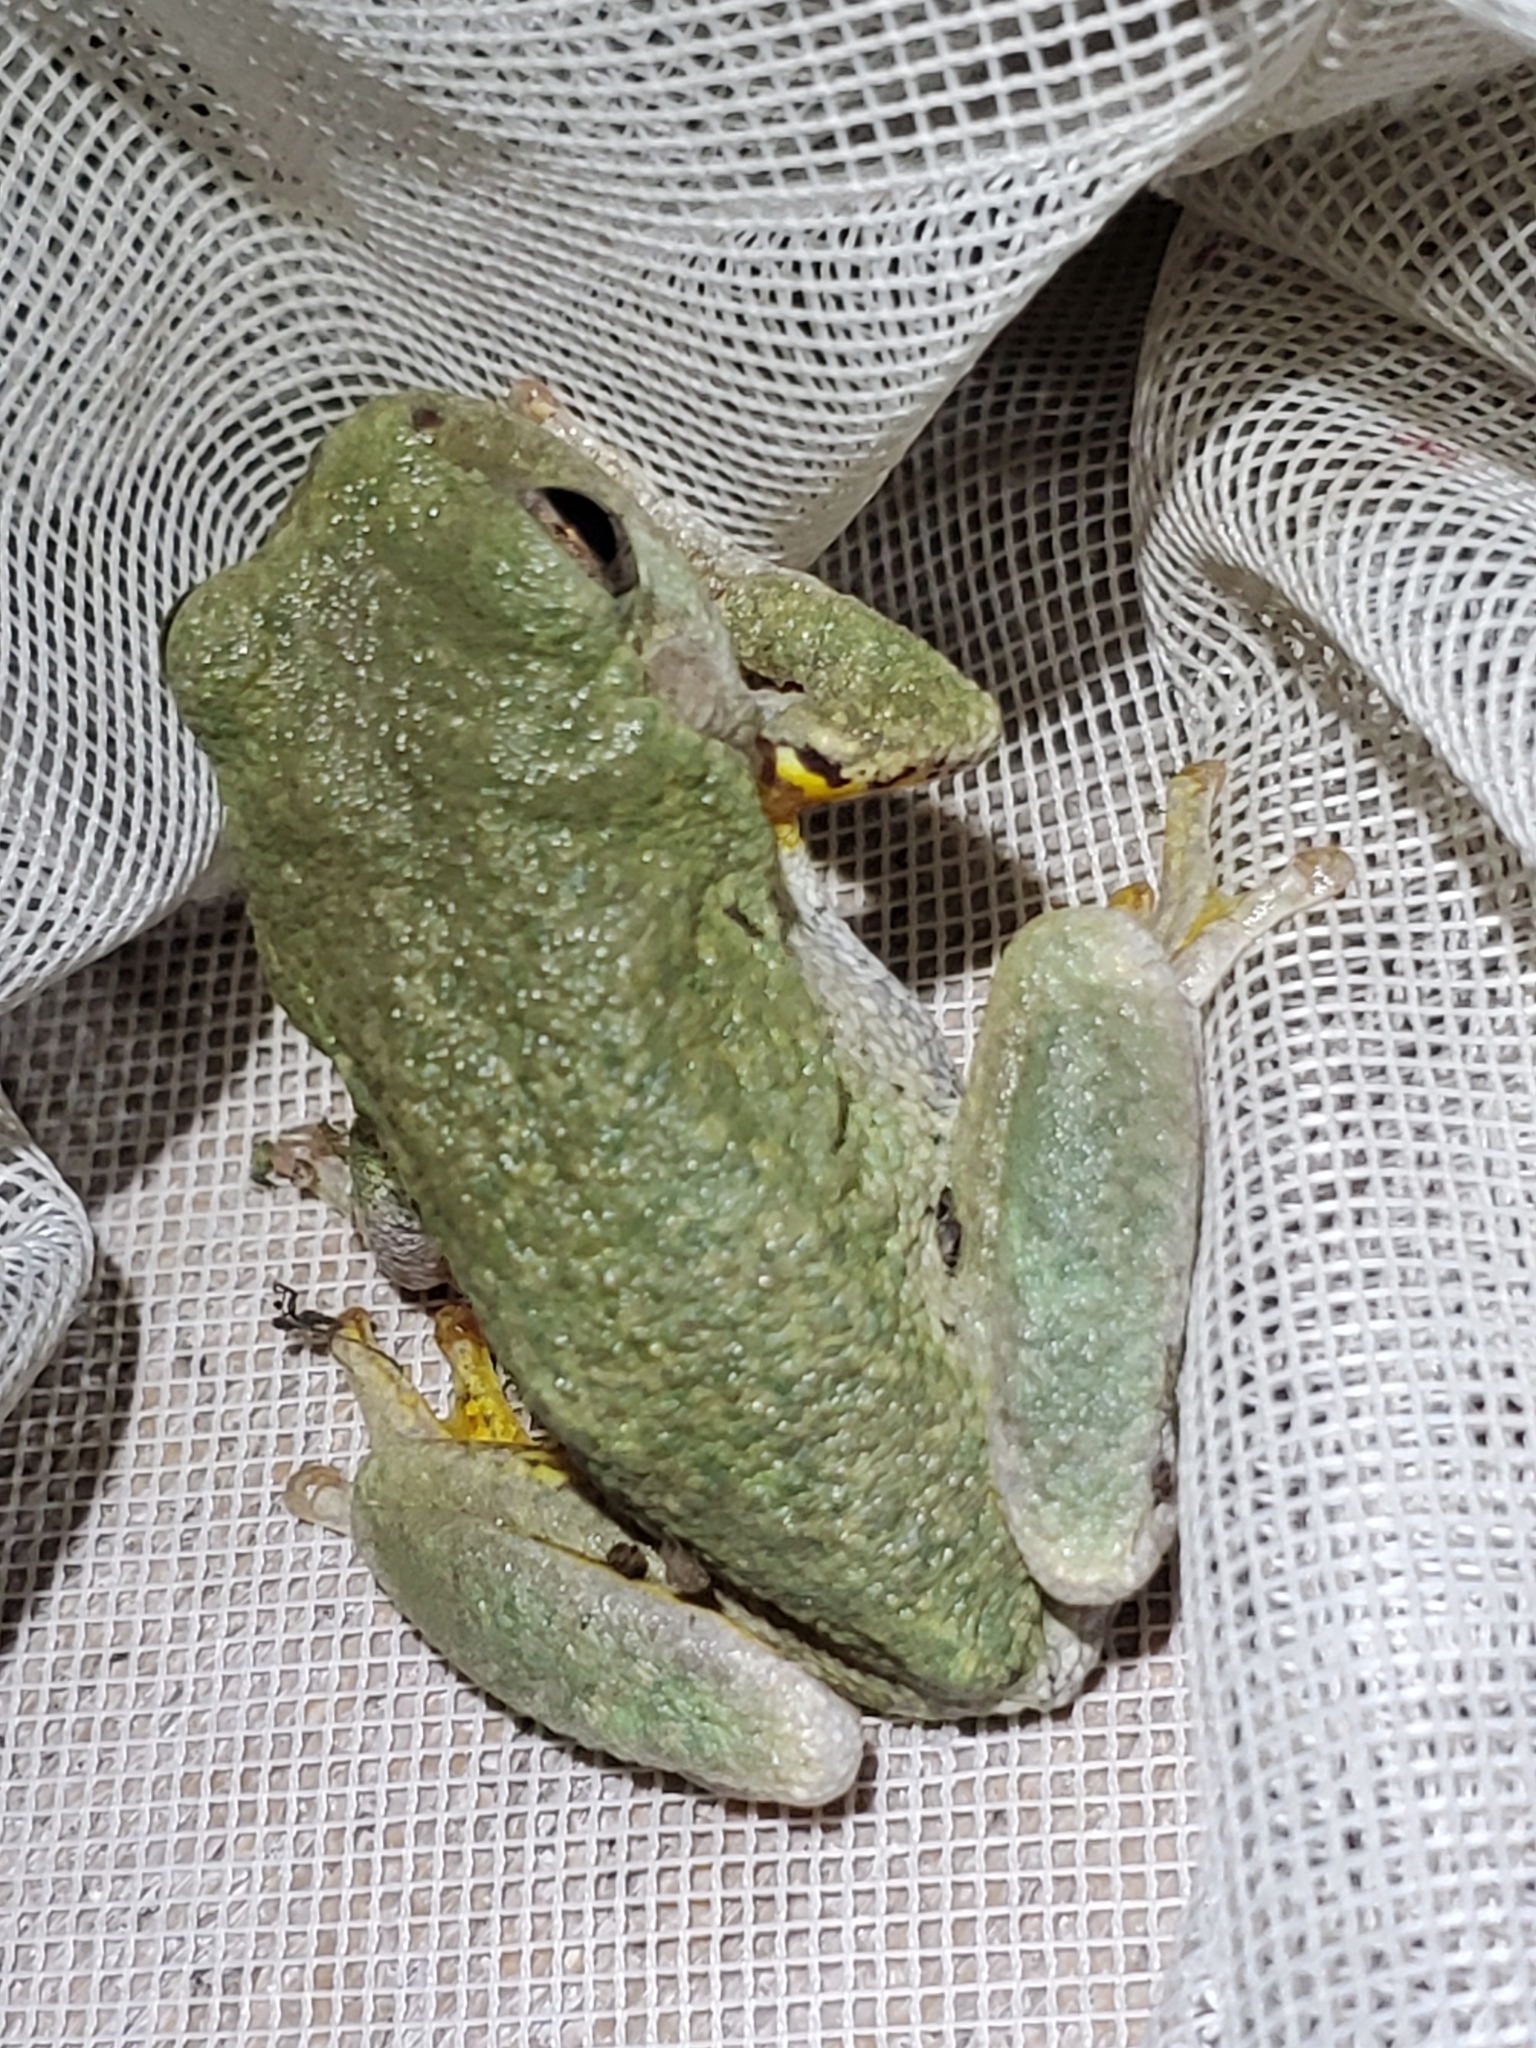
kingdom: Animalia
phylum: Chordata
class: Amphibia
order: Anura
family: Hylidae
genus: Dryophytes
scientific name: Dryophytes chrysoscelis
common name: Cope's gray treefrog
